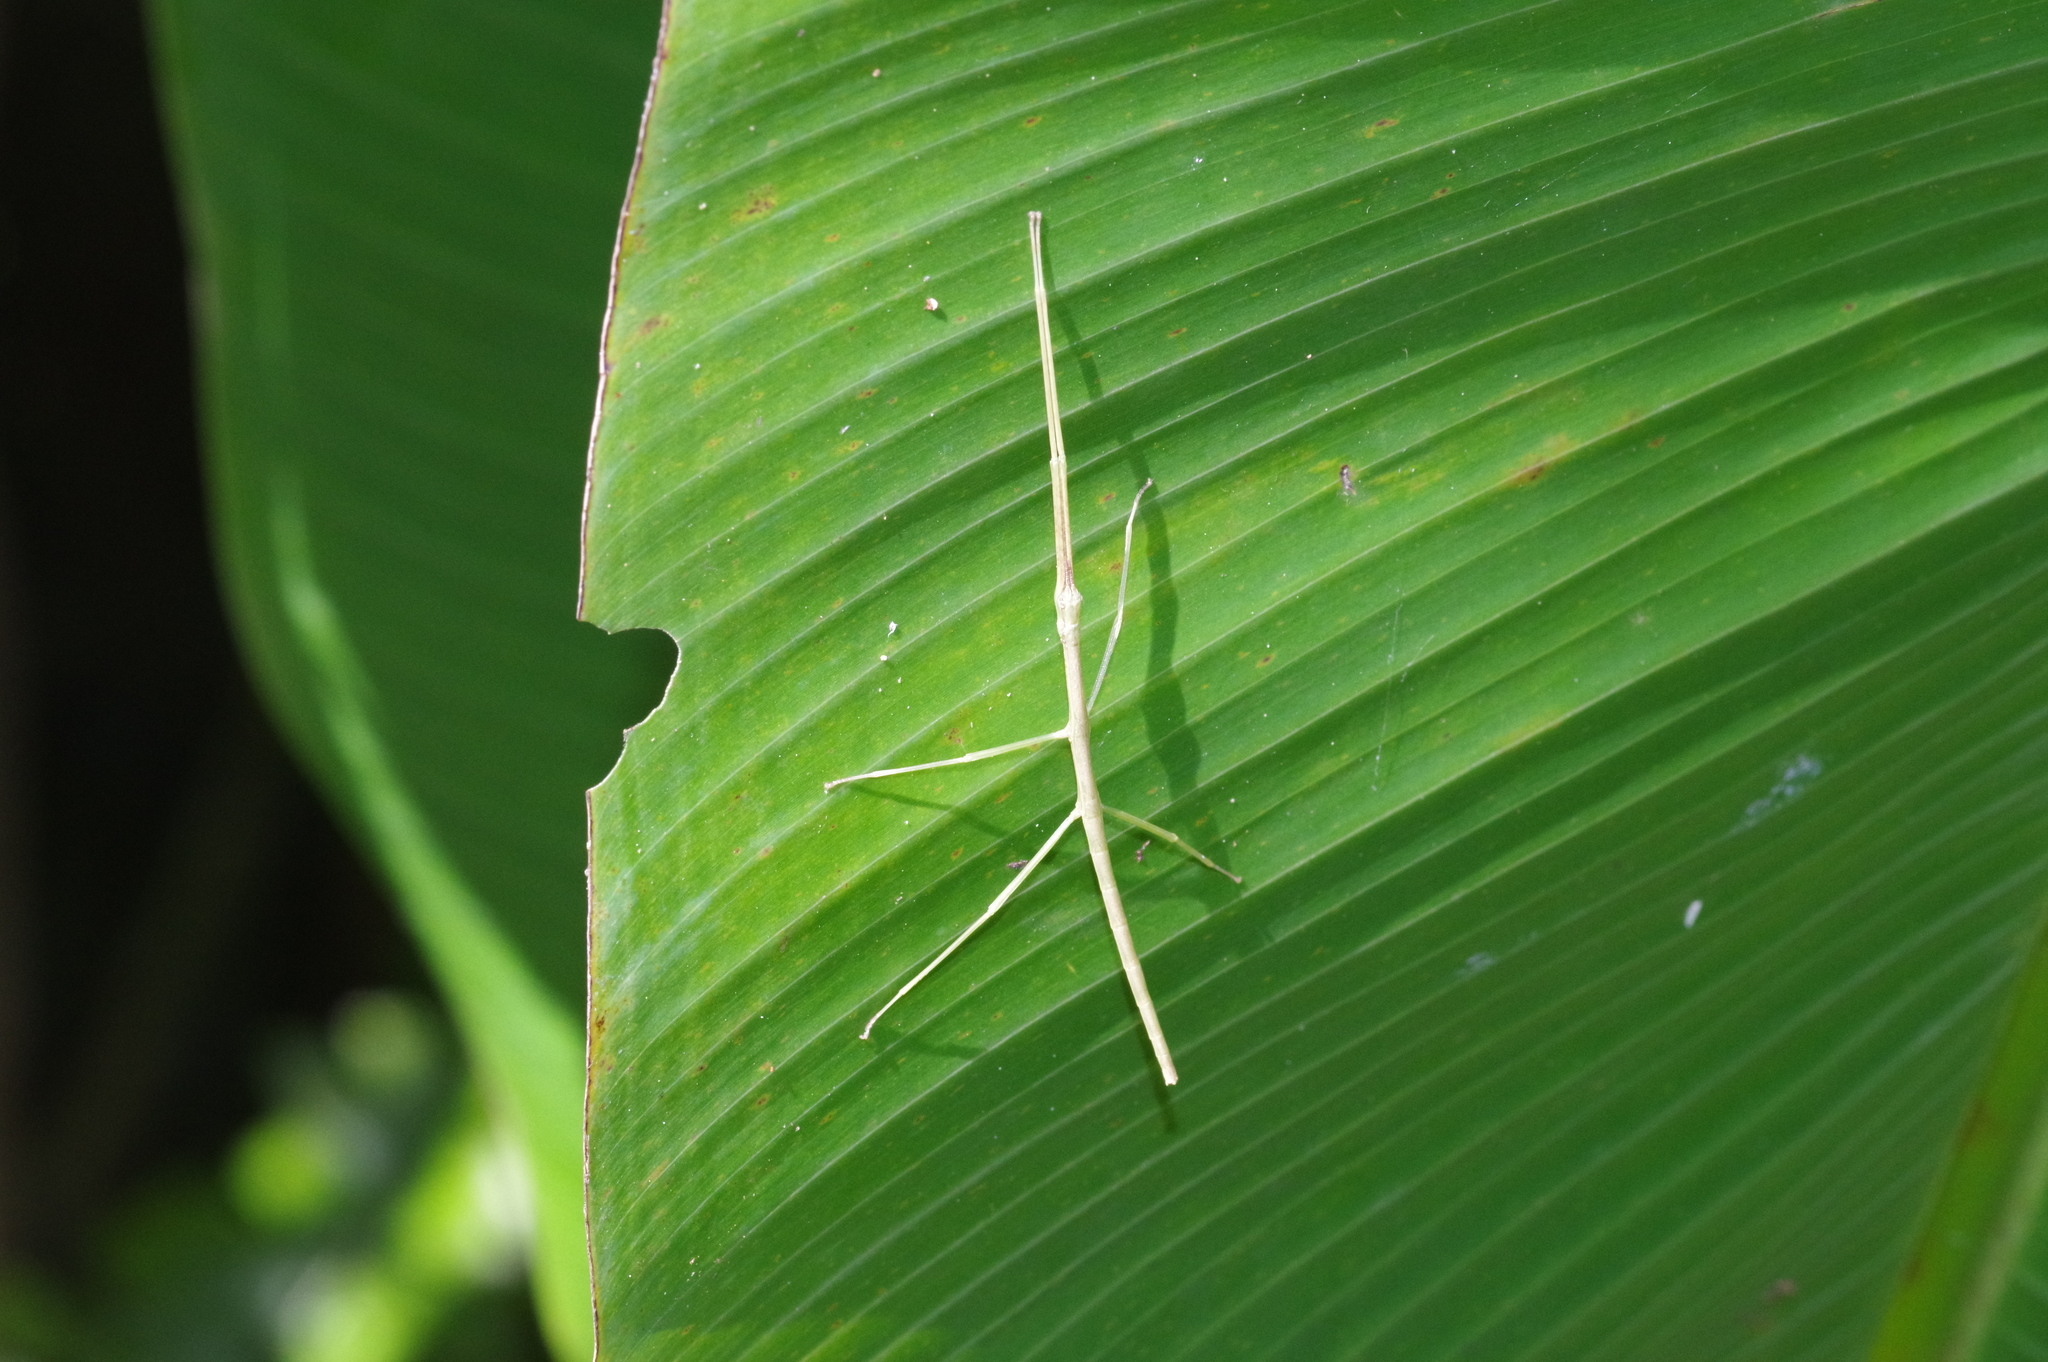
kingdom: Animalia
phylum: Arthropoda
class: Insecta
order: Phasmida
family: Phasmatidae
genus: Entoria
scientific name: Entoria miyakoensis
